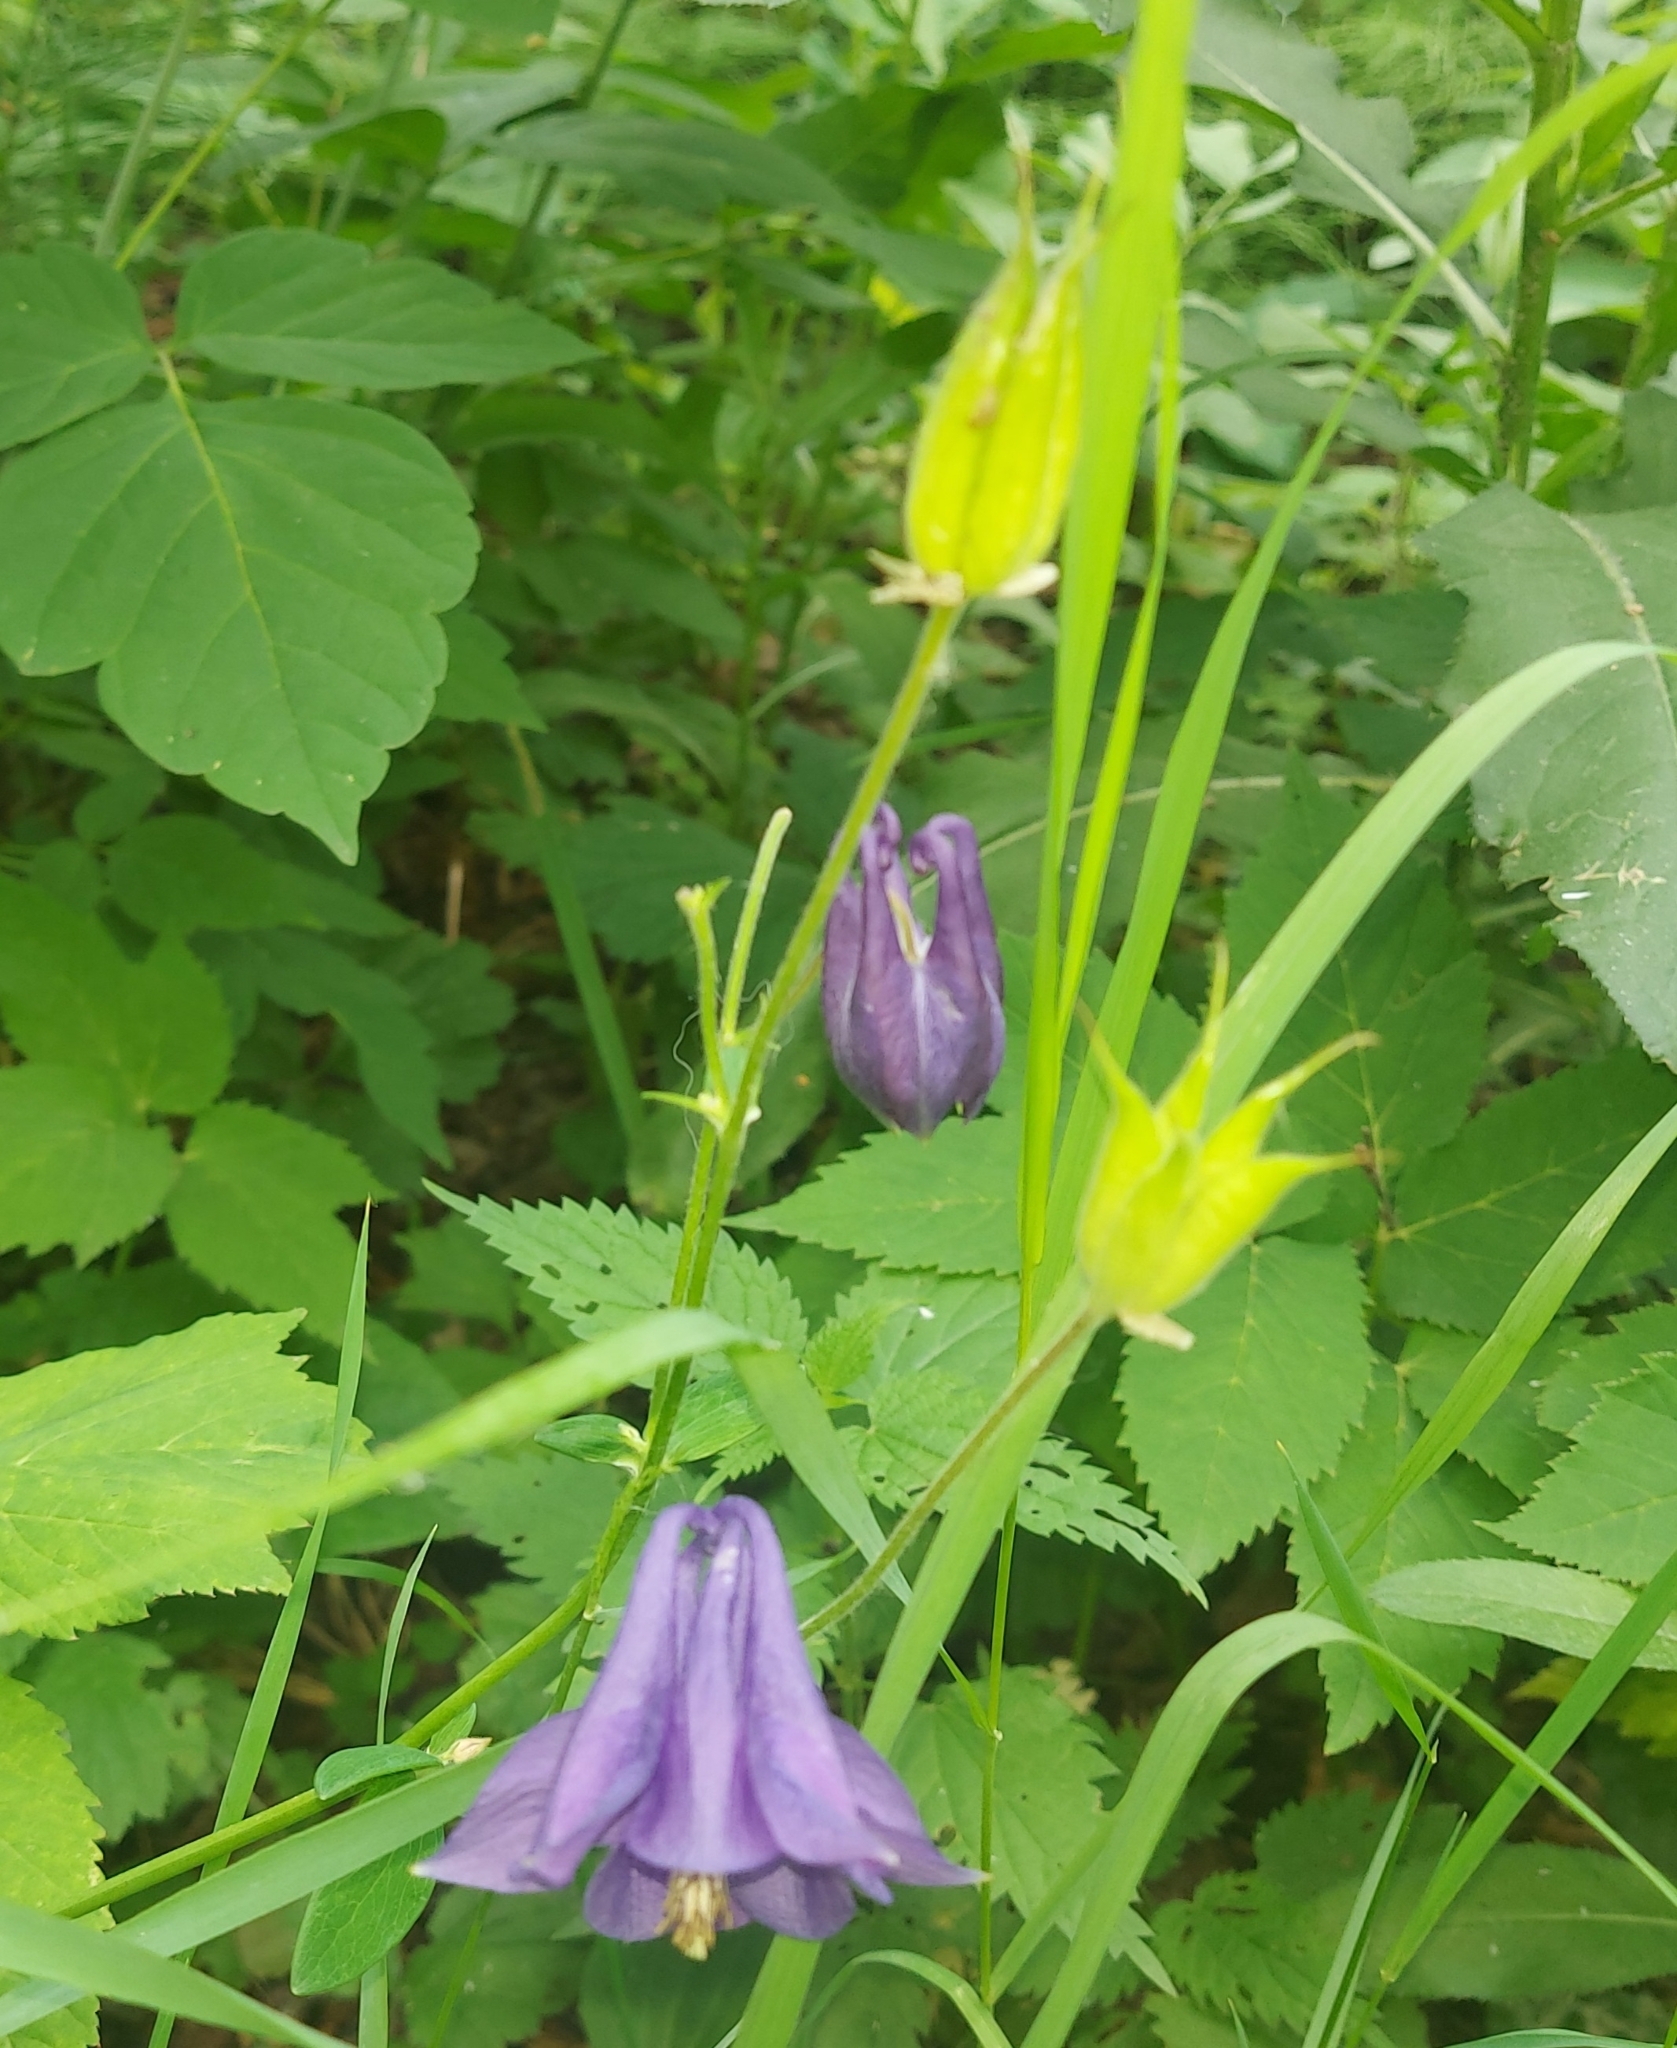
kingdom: Plantae
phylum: Tracheophyta
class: Magnoliopsida
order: Ranunculales
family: Ranunculaceae
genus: Aquilegia
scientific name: Aquilegia vulgaris
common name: Columbine
